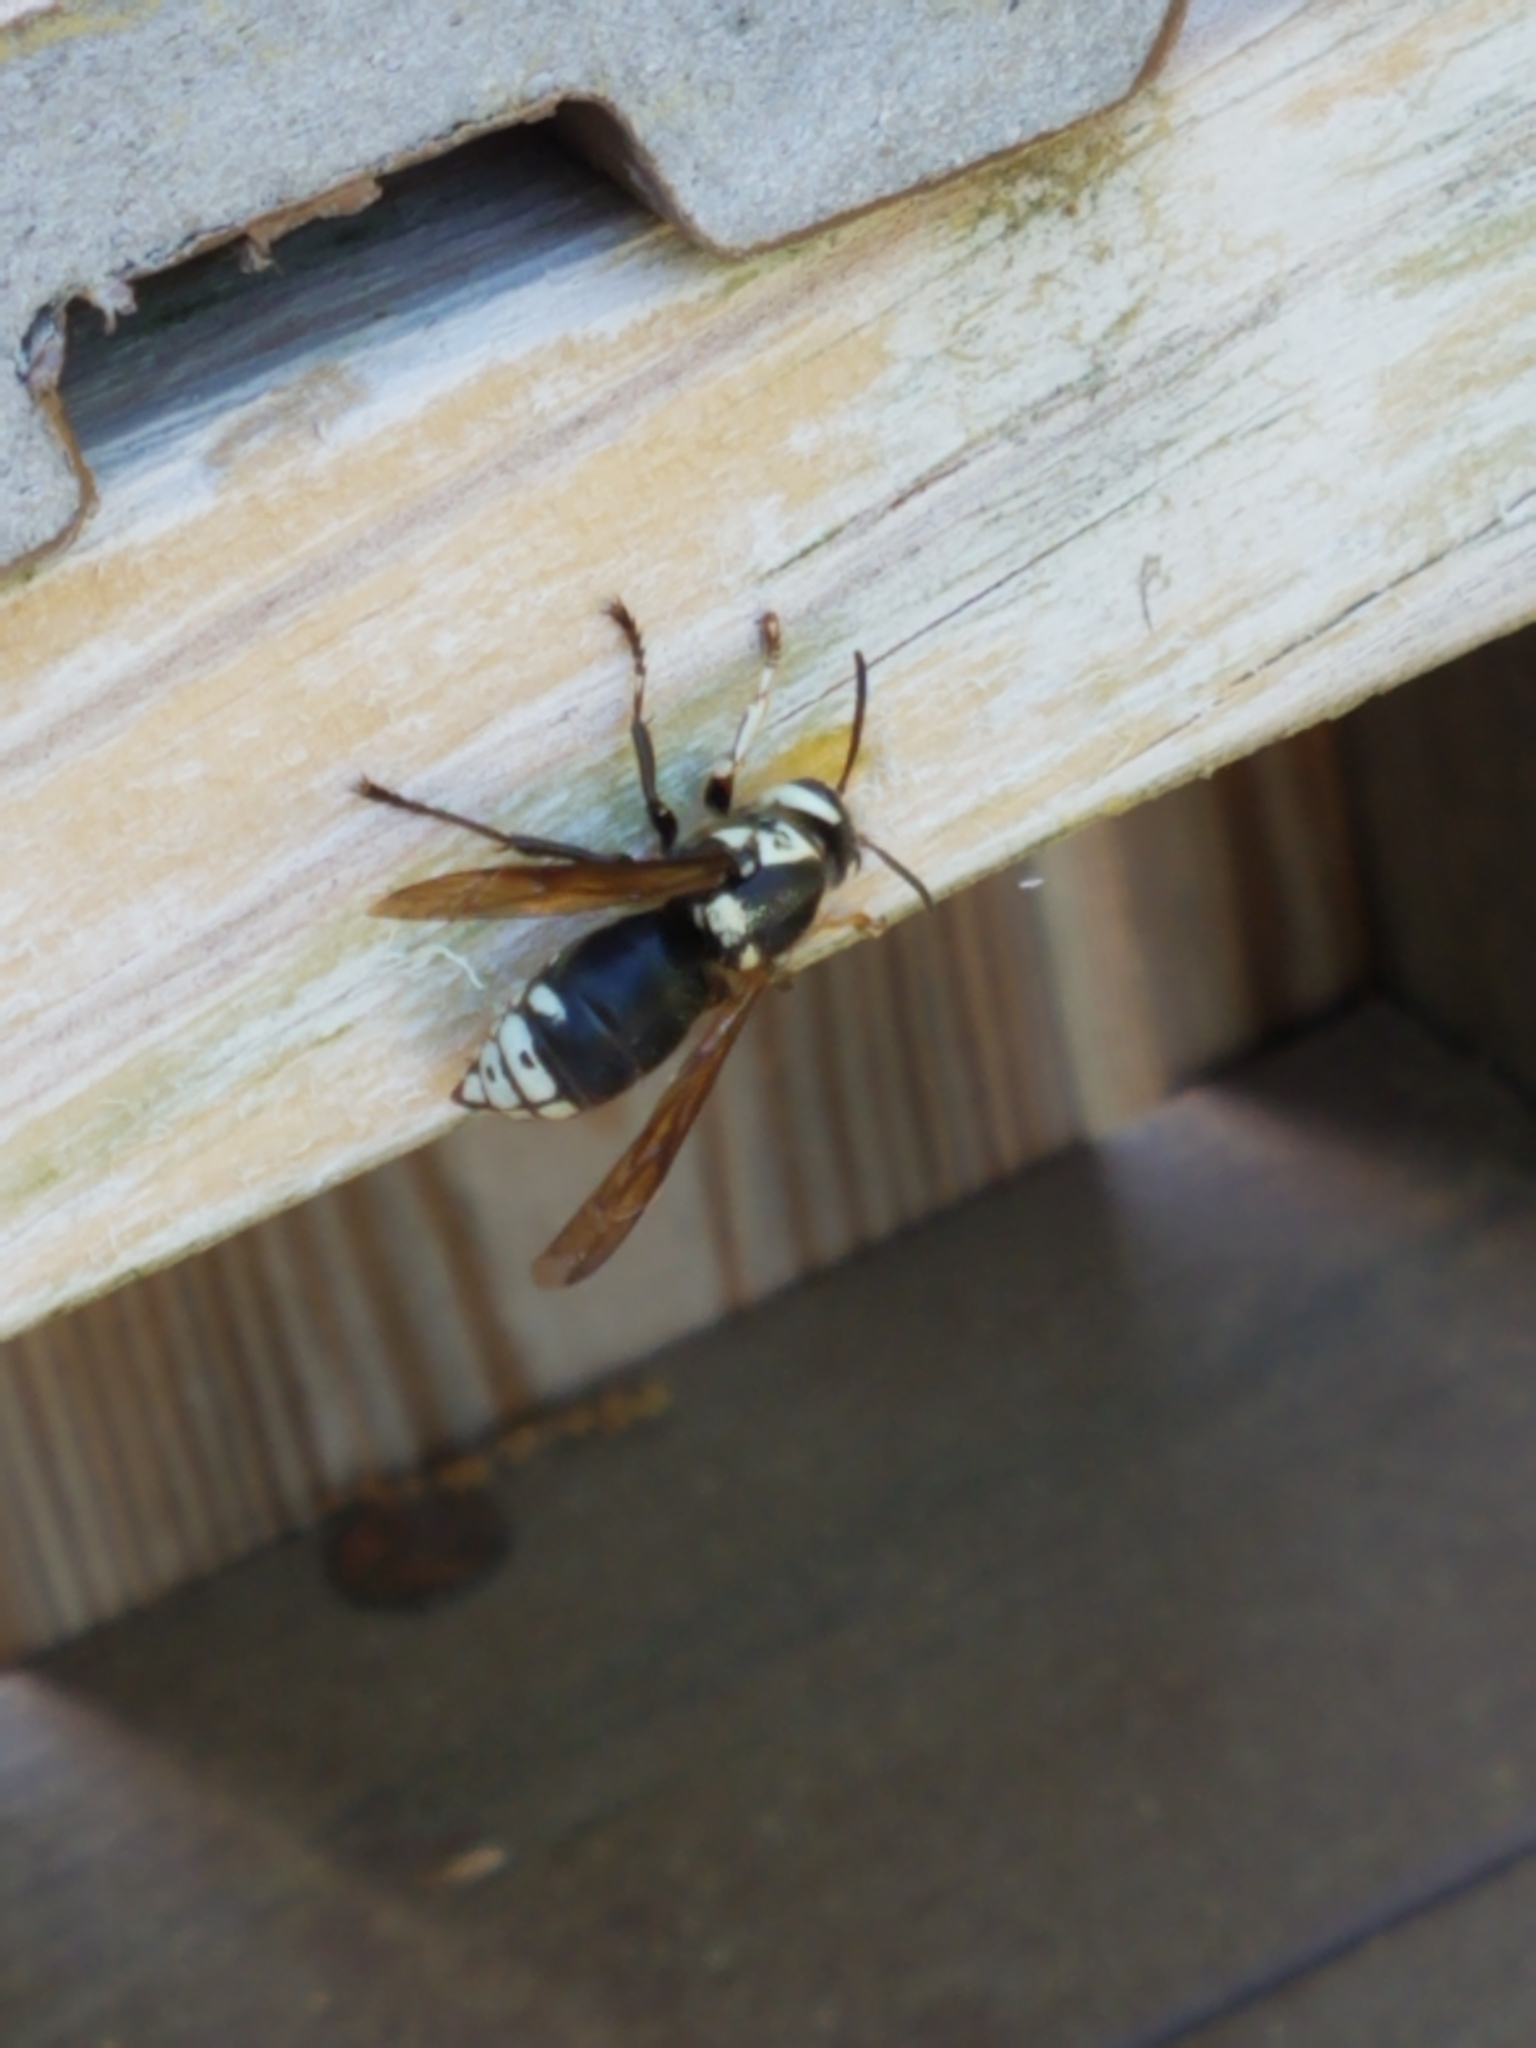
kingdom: Animalia
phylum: Arthropoda
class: Insecta
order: Hymenoptera
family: Vespidae
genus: Dolichovespula
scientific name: Dolichovespula maculata
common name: Bald-faced hornet
